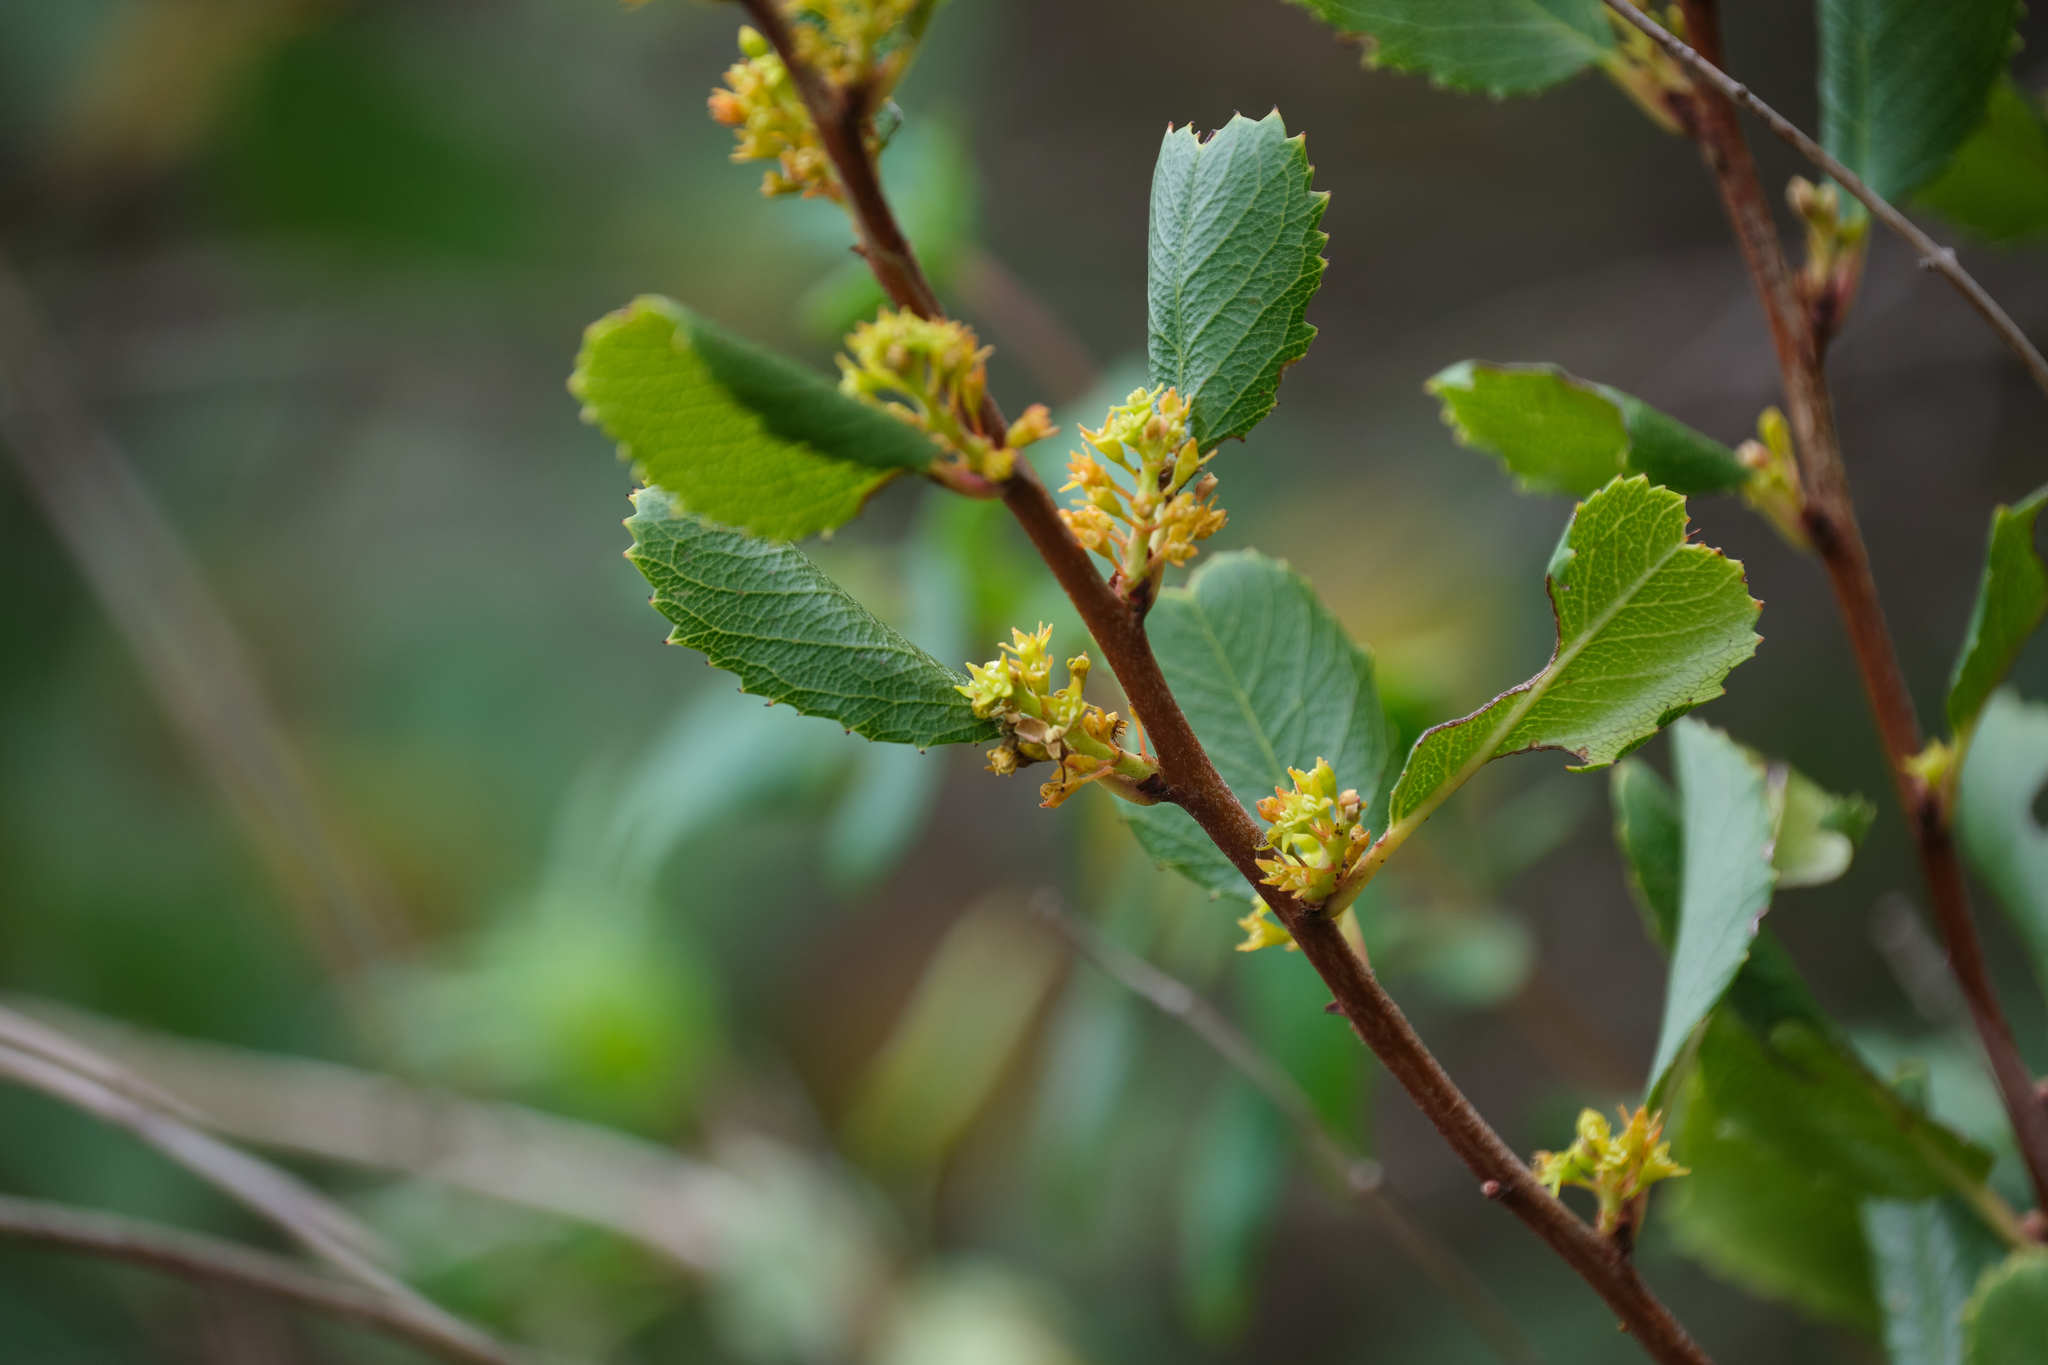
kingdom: Plantae
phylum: Tracheophyta
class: Magnoliopsida
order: Rosales
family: Rhamnaceae
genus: Endotropis
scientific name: Endotropis crocea
